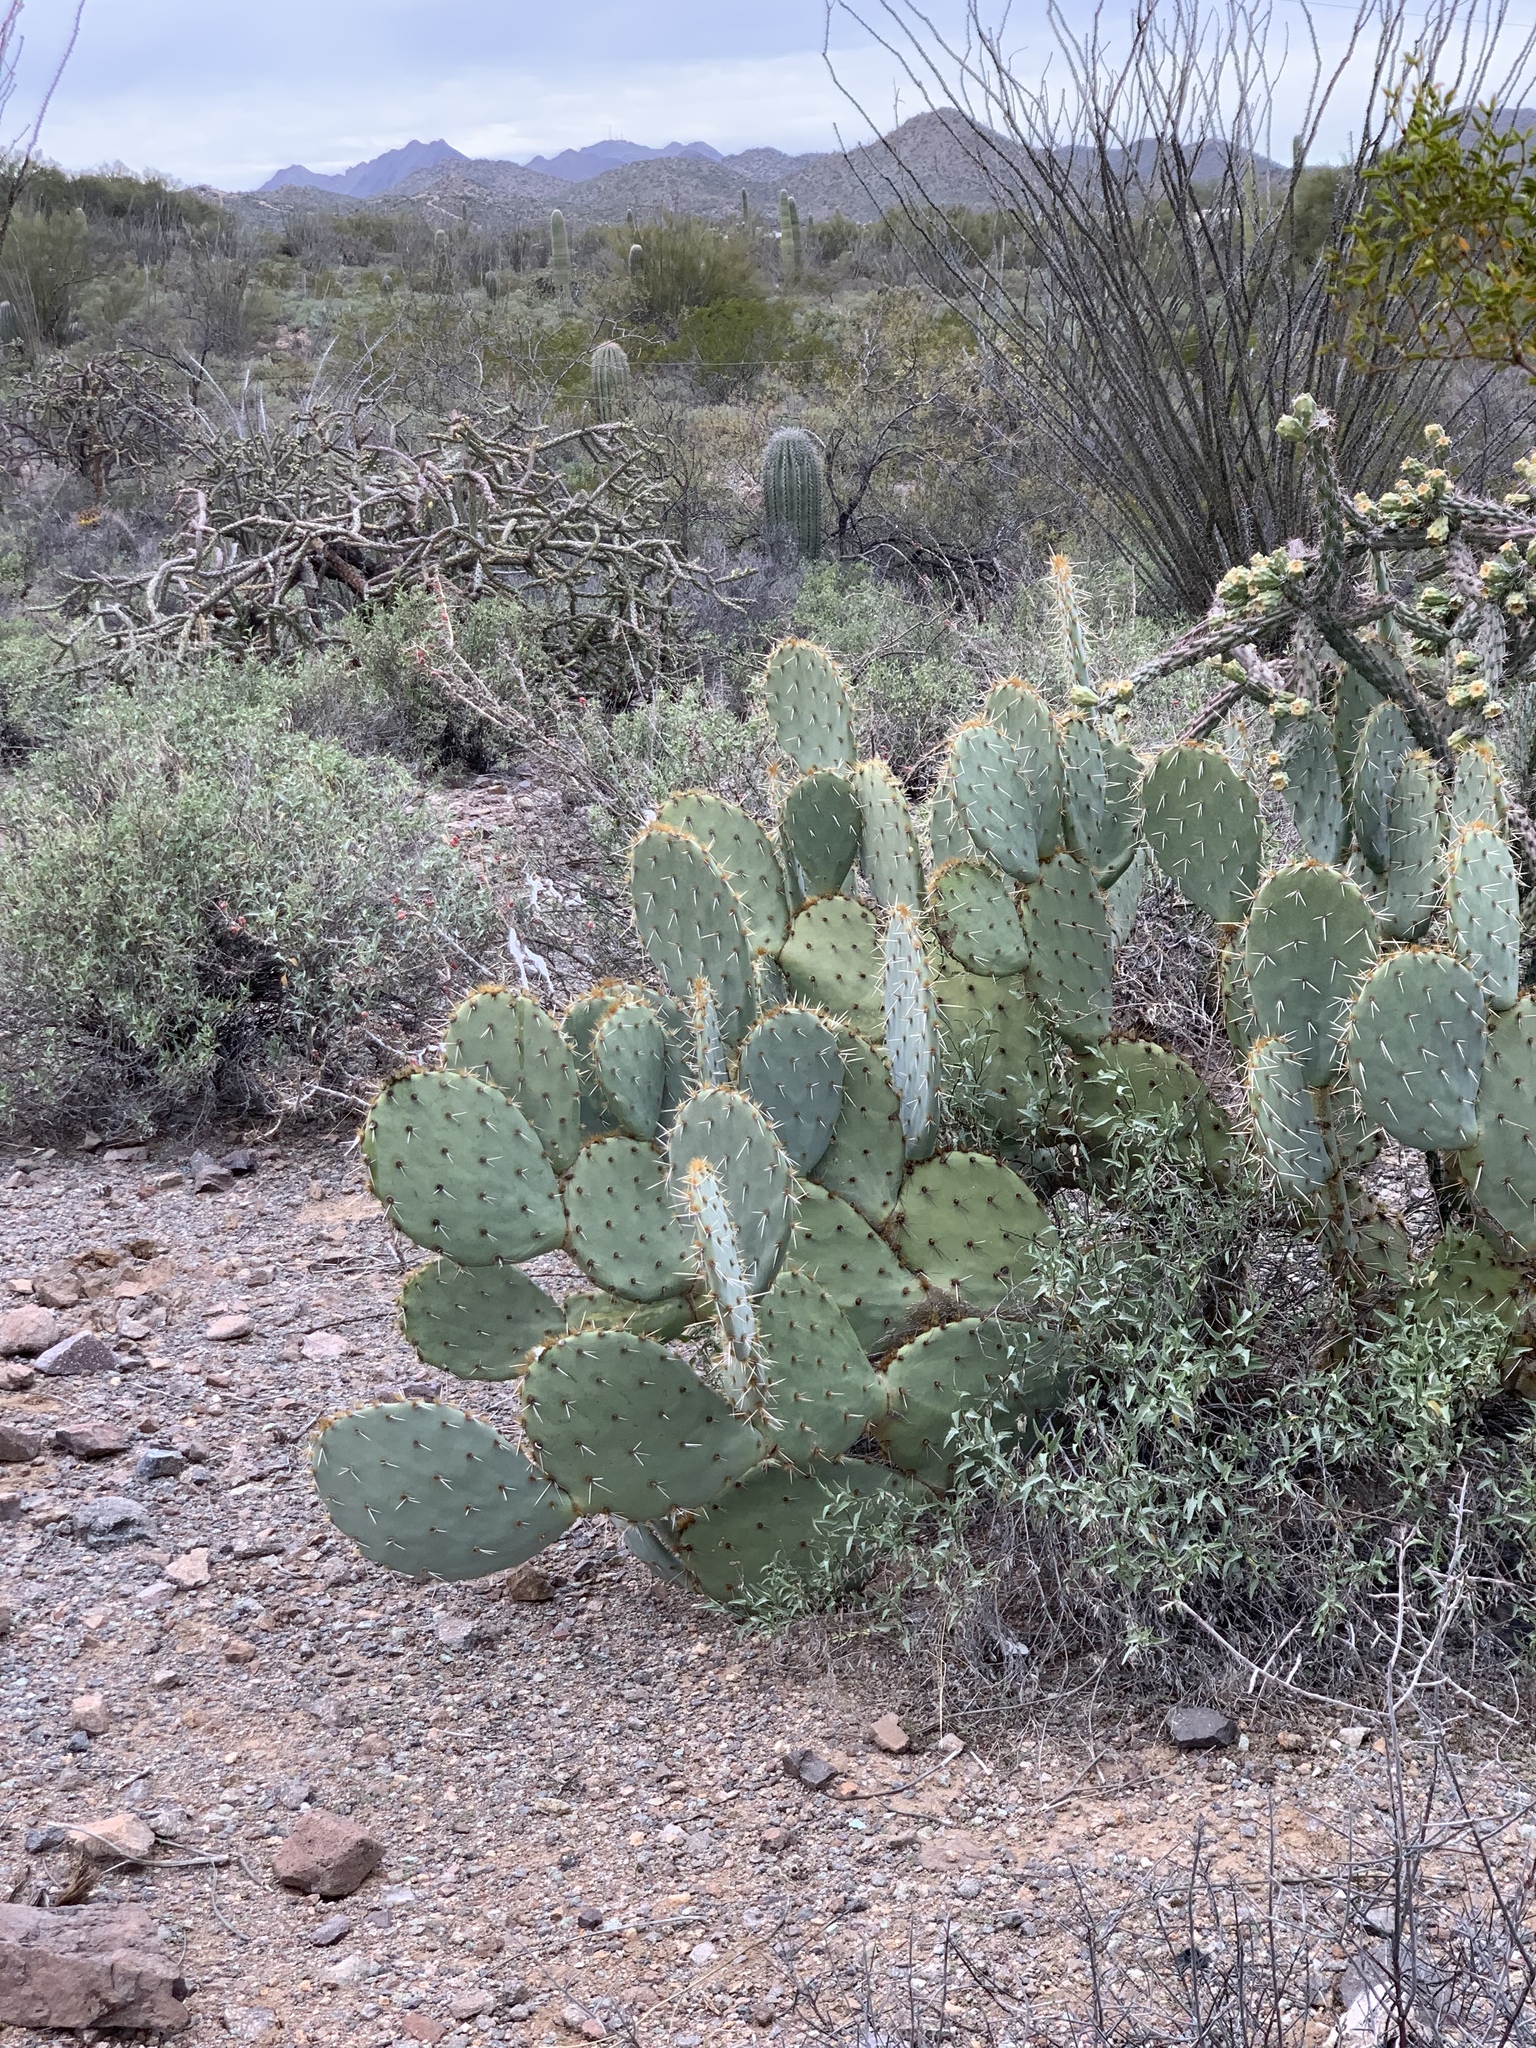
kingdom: Plantae
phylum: Tracheophyta
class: Magnoliopsida
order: Caryophyllales
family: Cactaceae
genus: Opuntia
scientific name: Opuntia engelmannii
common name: Cactus-apple
